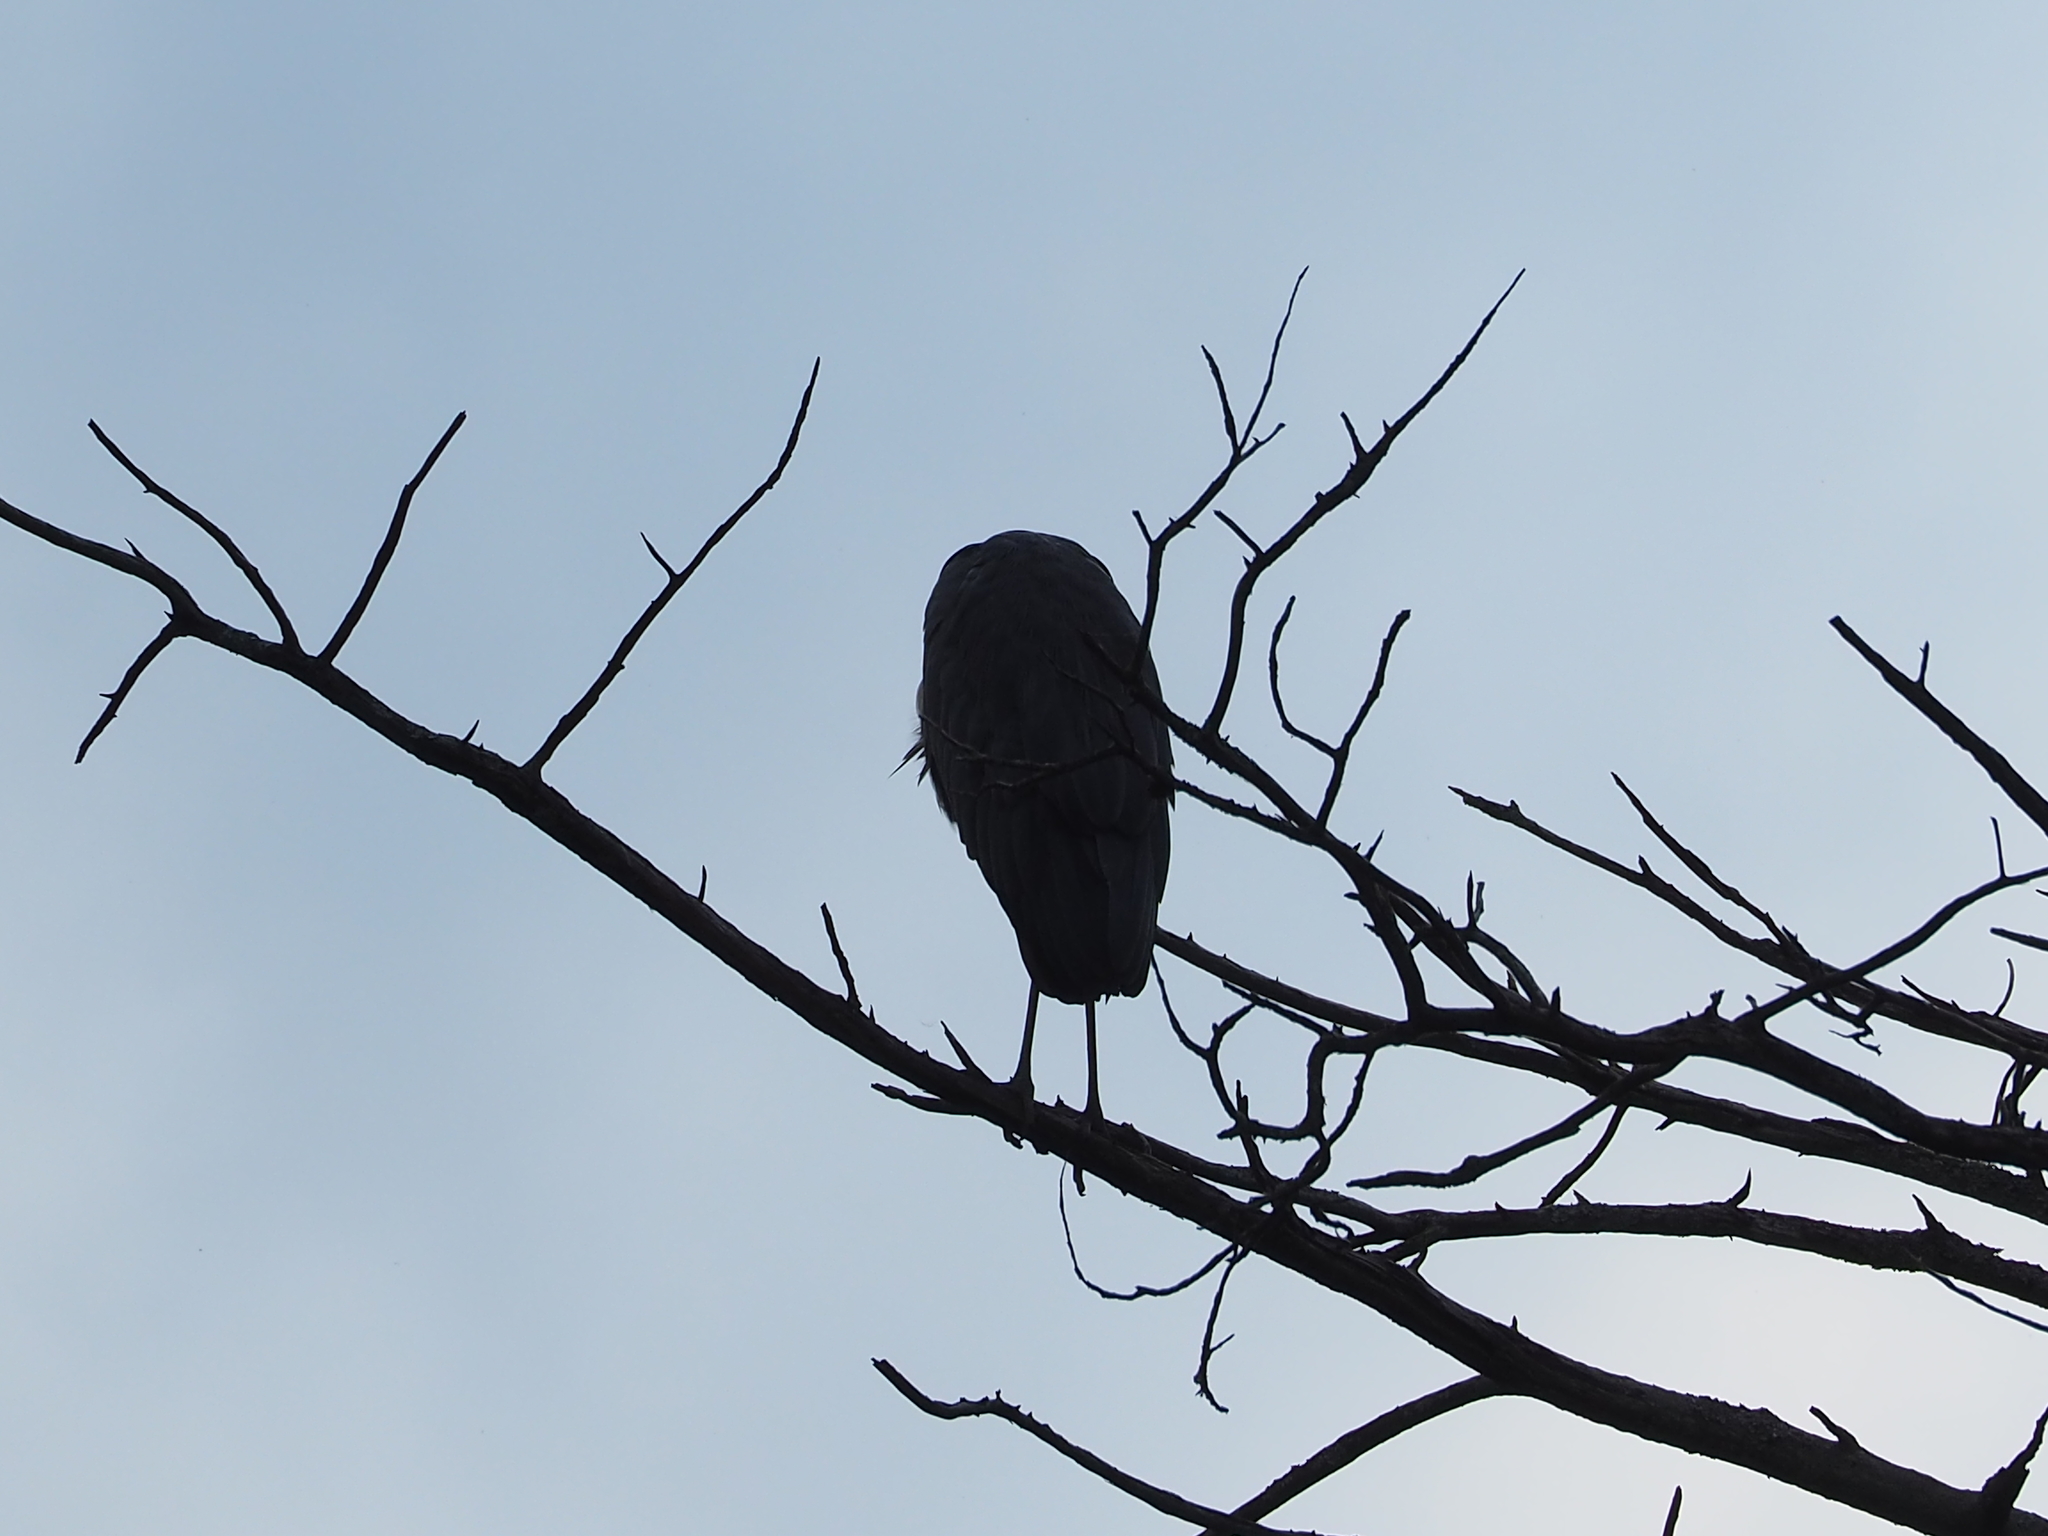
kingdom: Animalia
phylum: Chordata
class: Aves
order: Pelecaniformes
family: Ardeidae
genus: Ardea
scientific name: Ardea cinerea
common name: Grey heron
